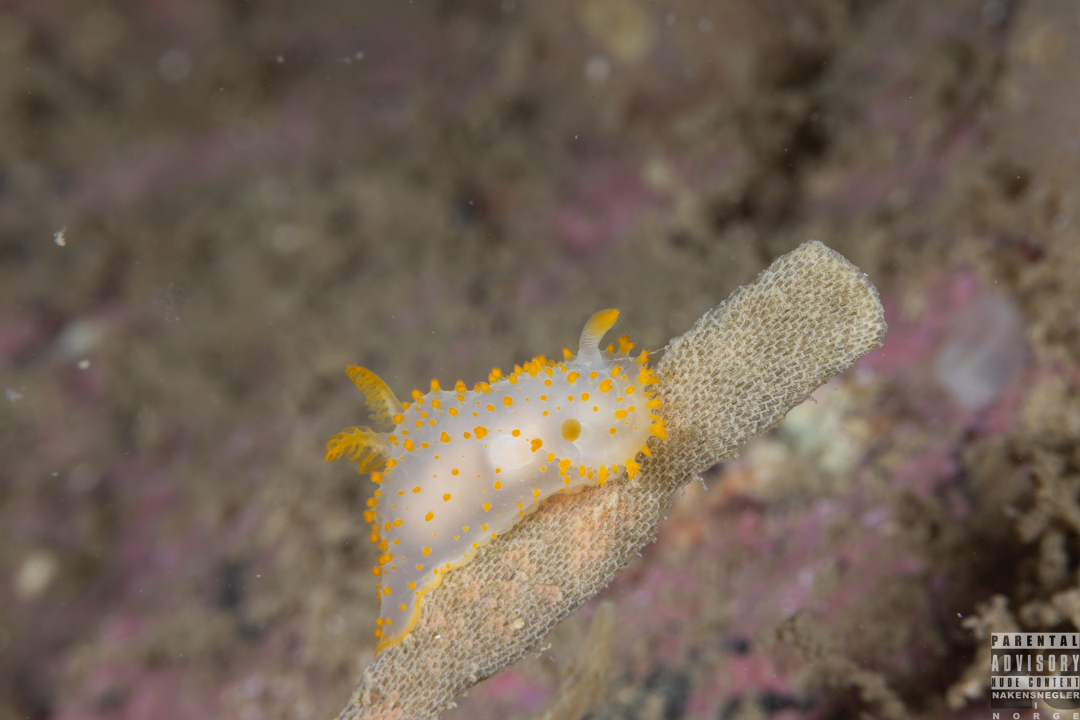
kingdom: Animalia
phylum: Mollusca
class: Gastropoda
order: Nudibranchia
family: Polyceridae
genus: Crimora
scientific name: Crimora papillata
